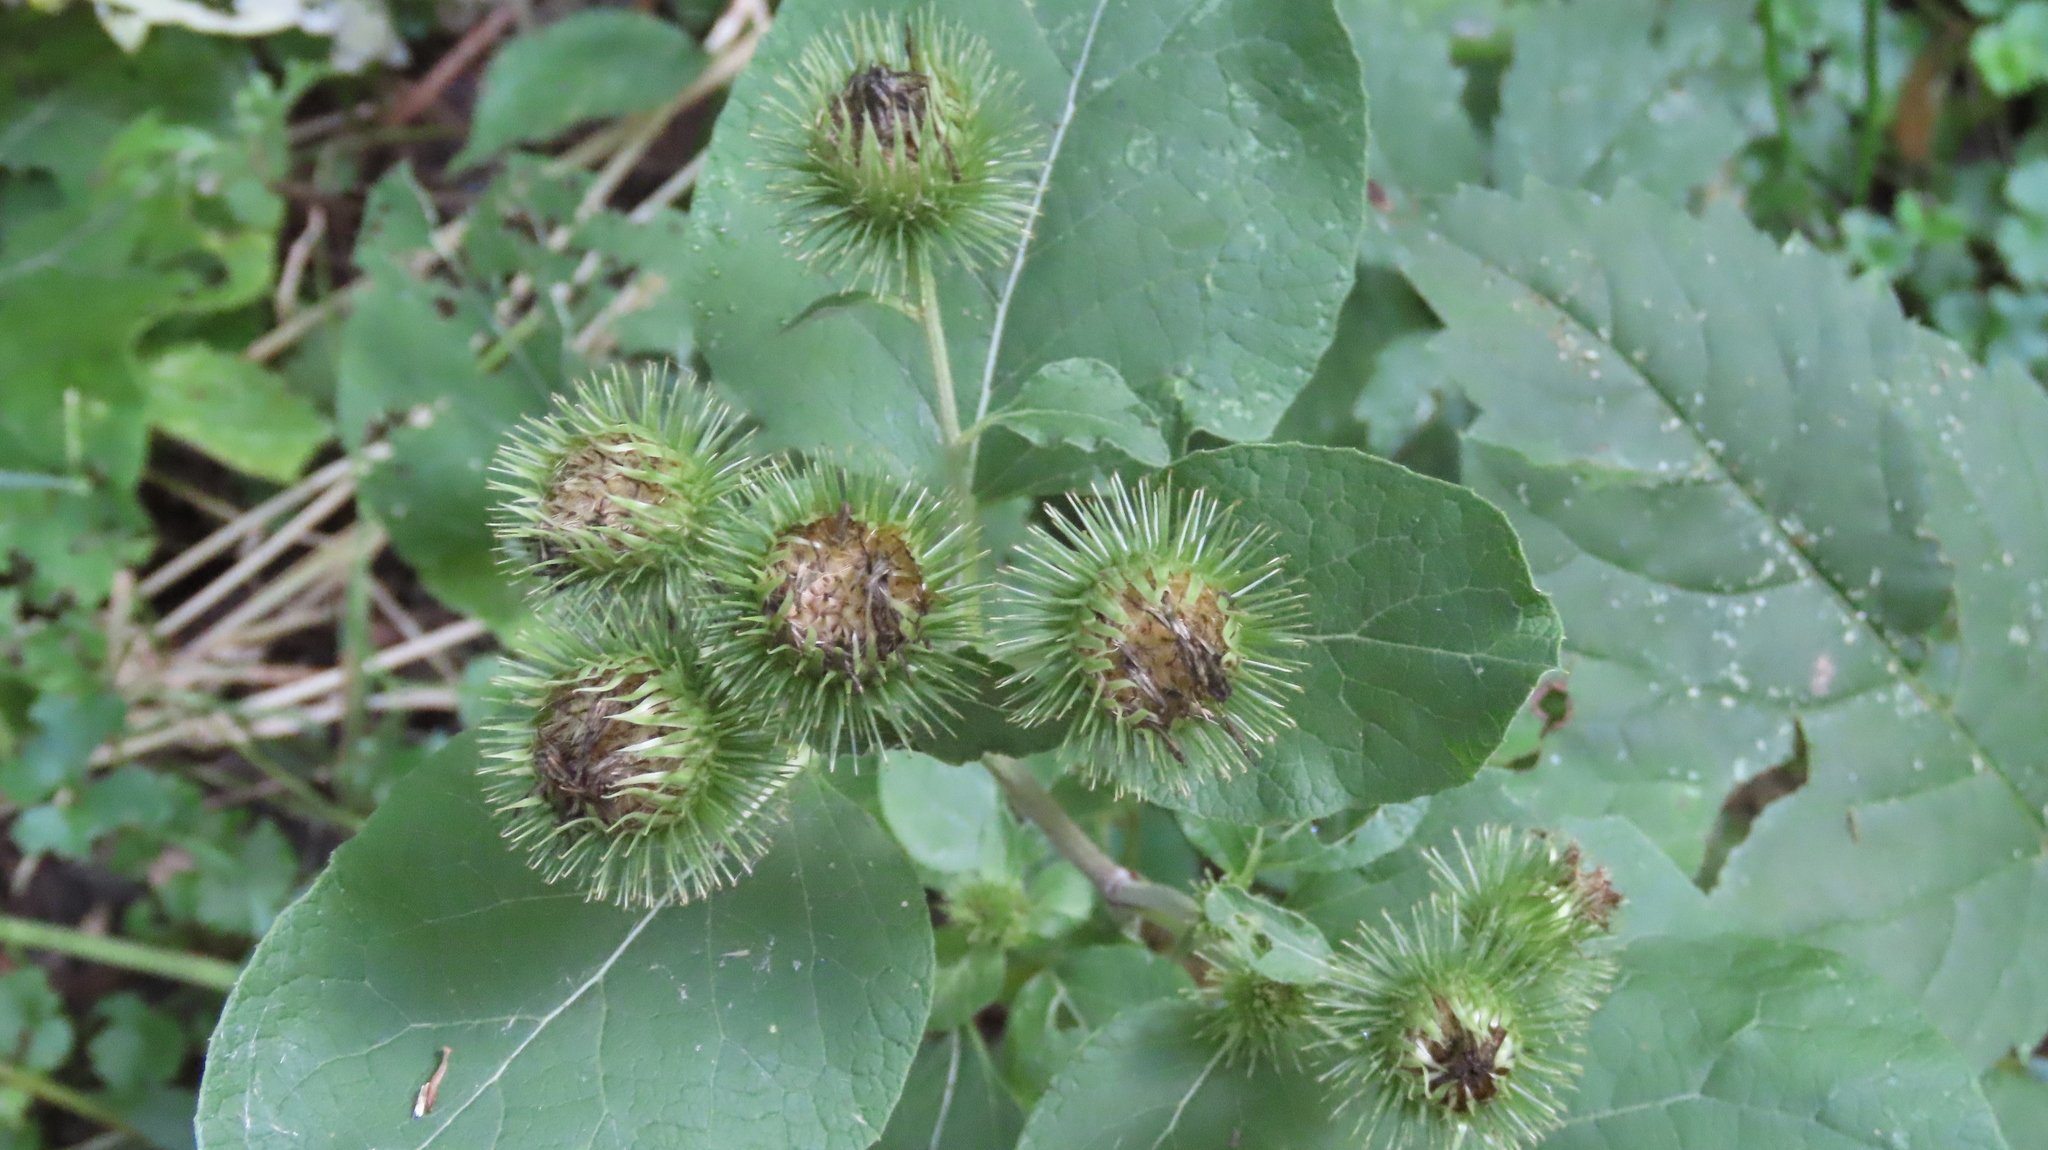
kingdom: Plantae
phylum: Tracheophyta
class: Magnoliopsida
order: Asterales
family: Asteraceae
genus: Arctium
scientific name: Arctium lappa
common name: Greater burdock
